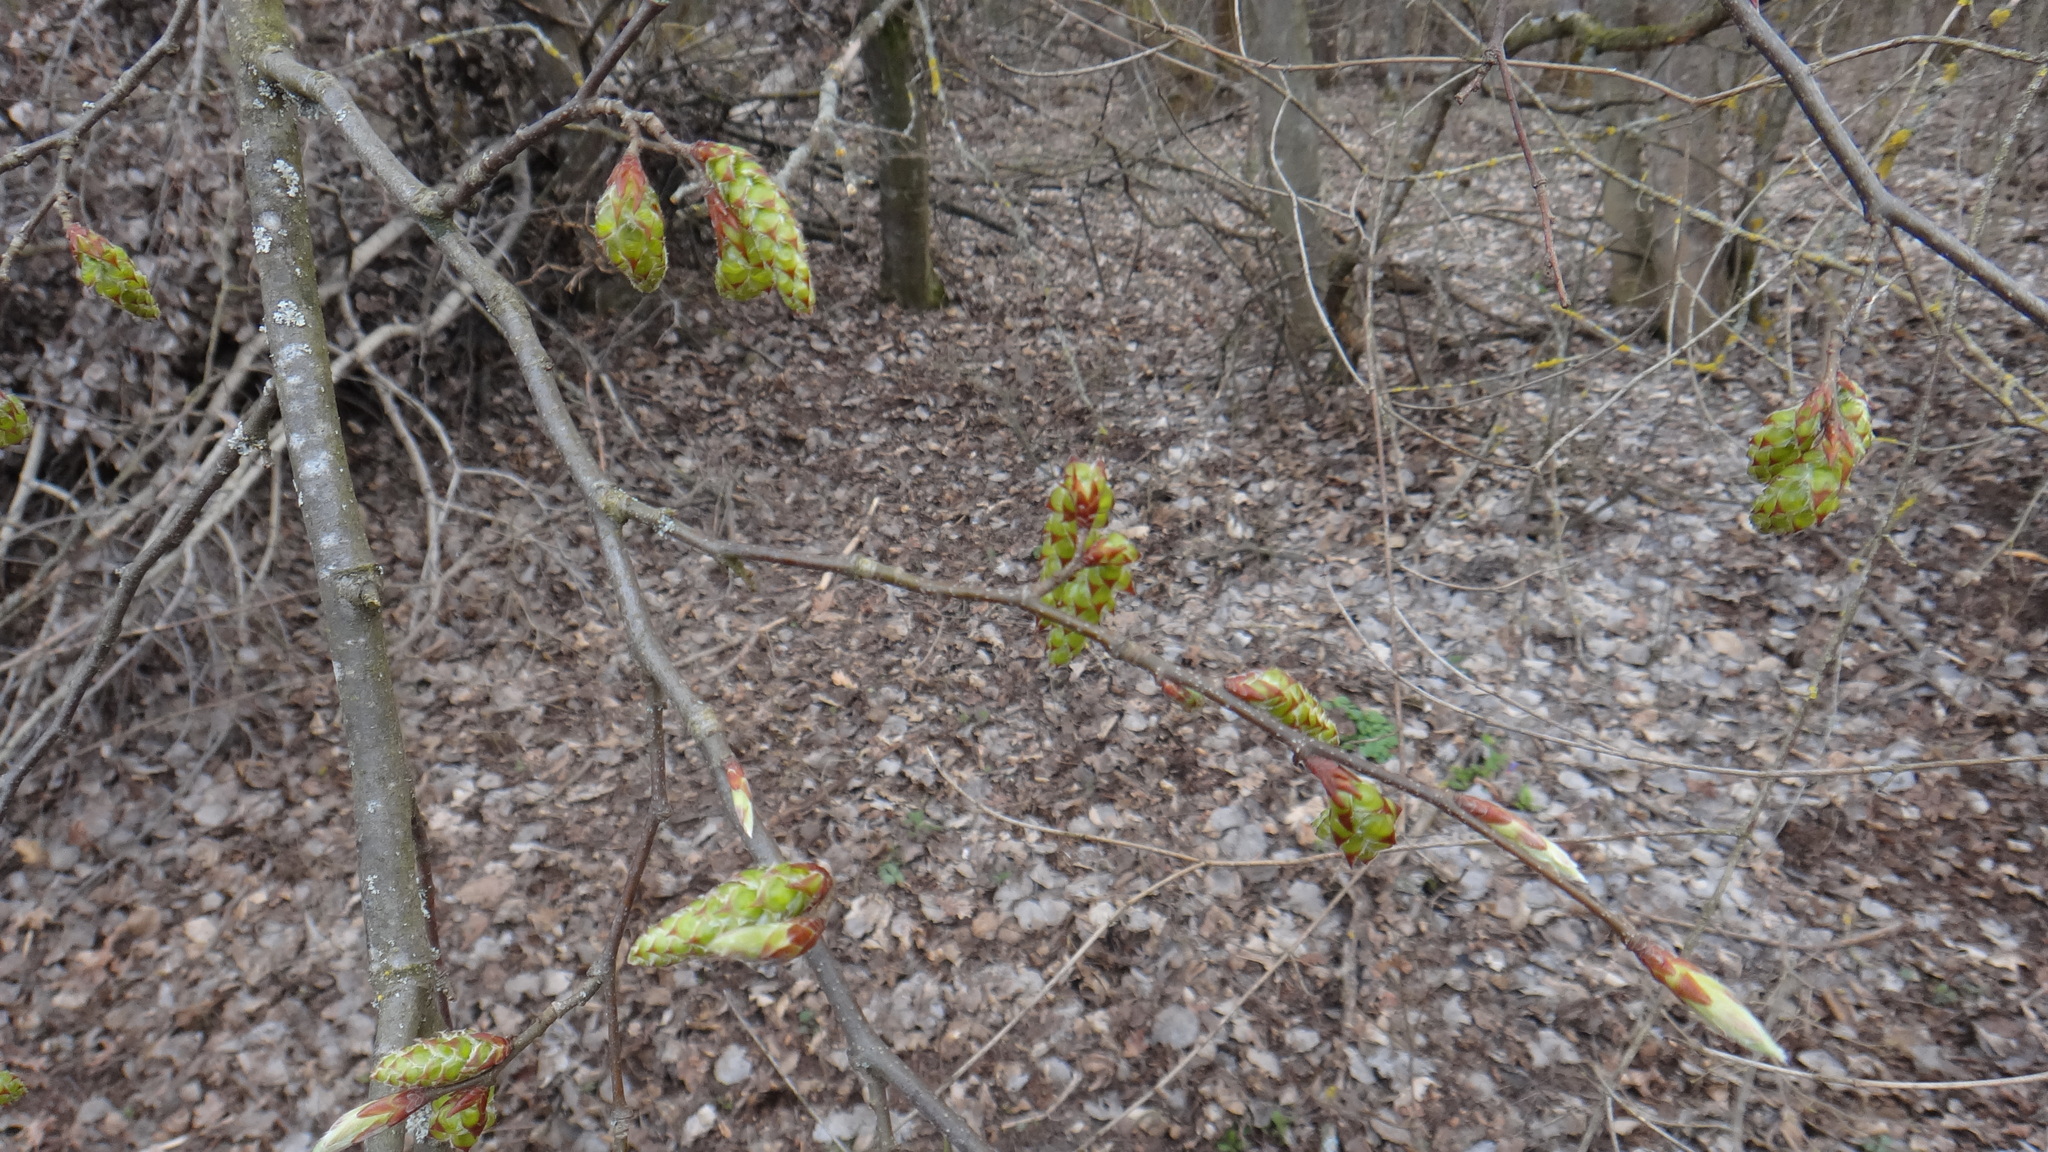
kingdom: Plantae
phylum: Tracheophyta
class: Magnoliopsida
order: Fagales
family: Betulaceae
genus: Carpinus
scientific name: Carpinus betulus
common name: Hornbeam
